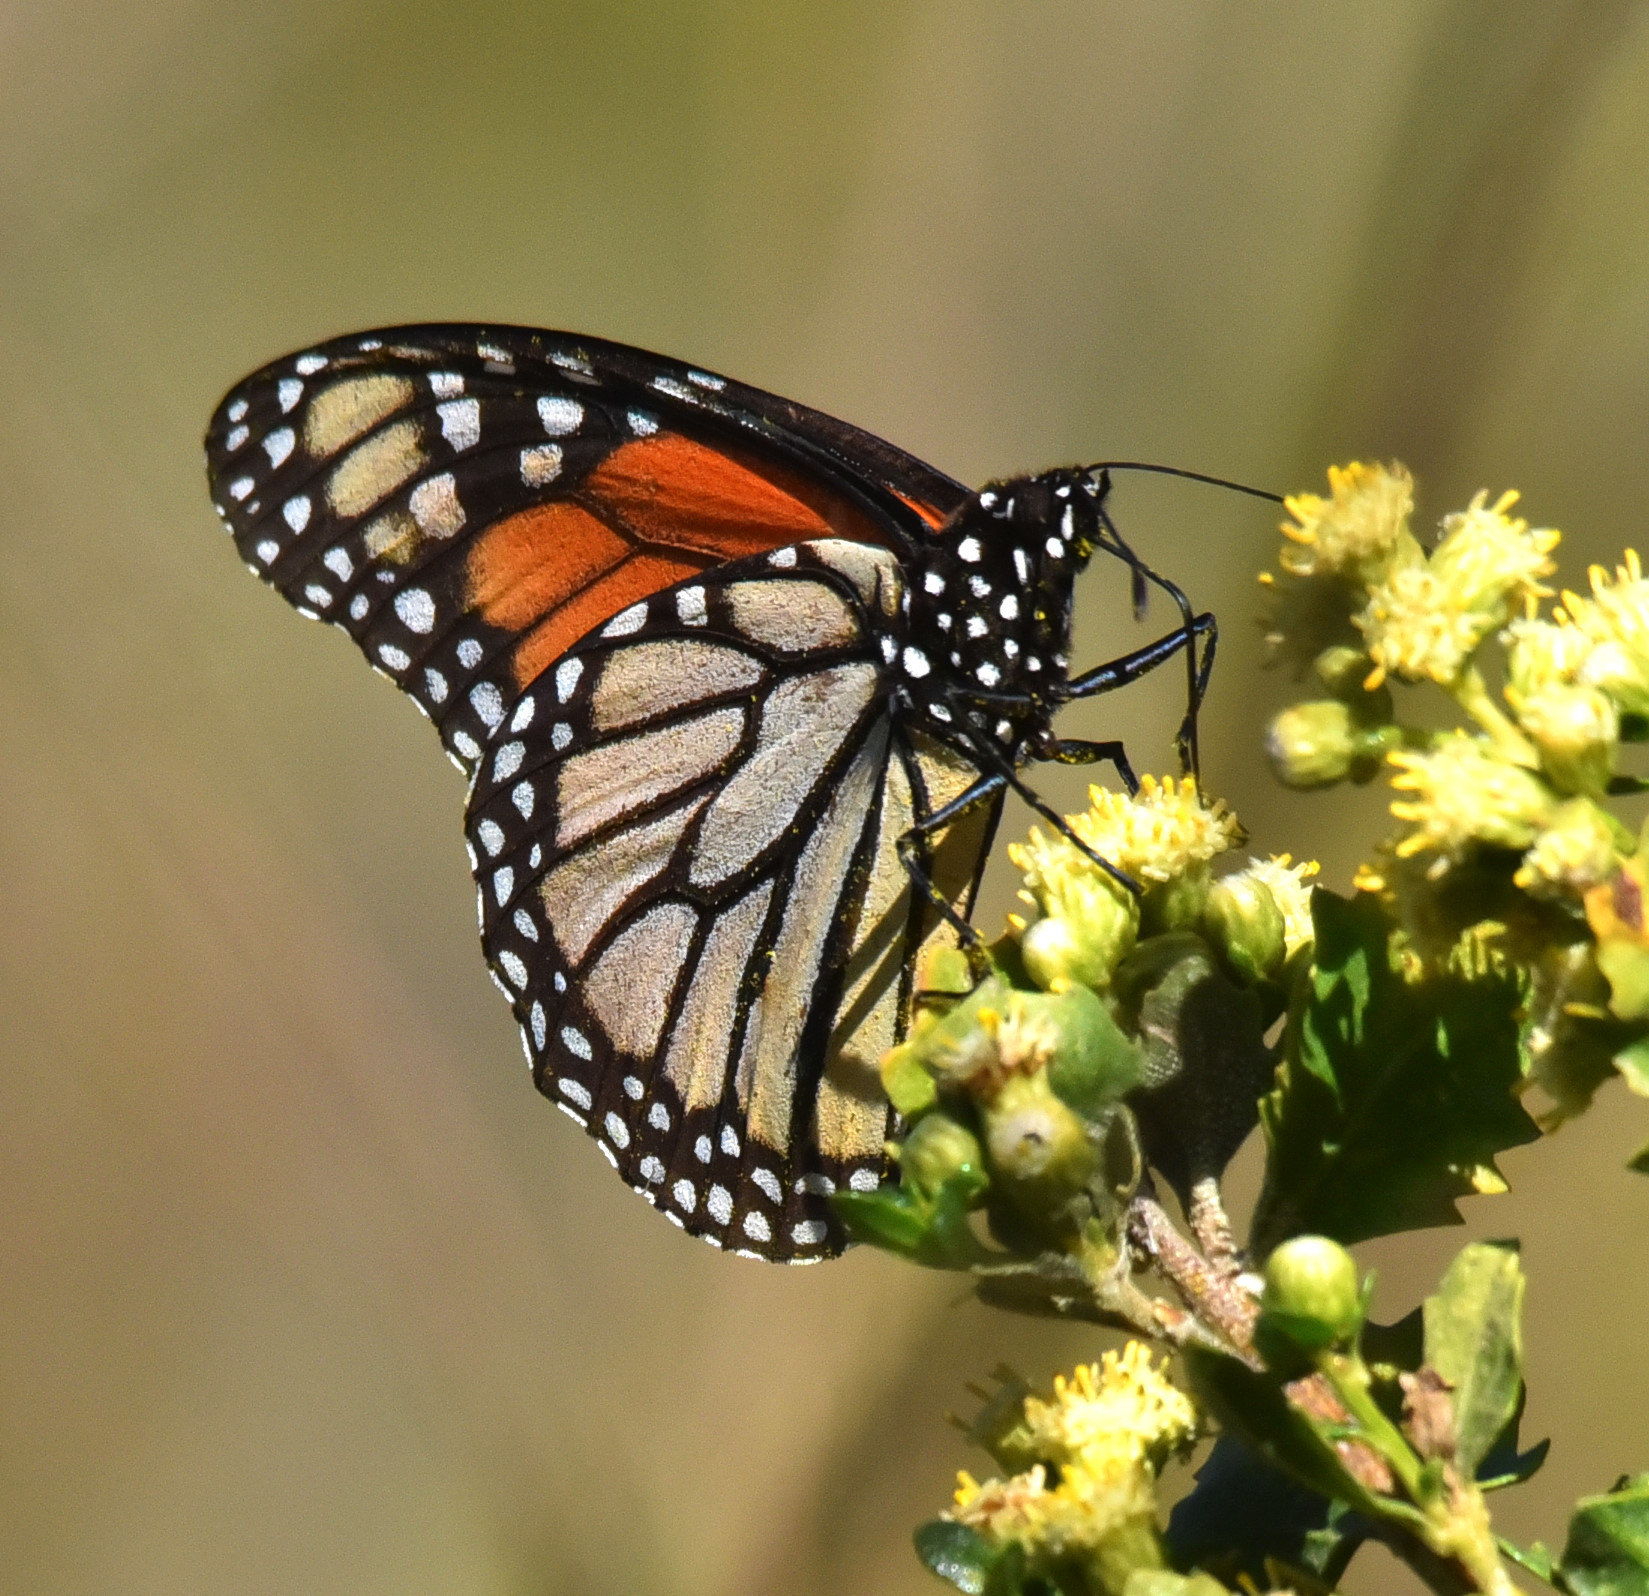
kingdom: Animalia
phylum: Arthropoda
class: Insecta
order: Lepidoptera
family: Nymphalidae
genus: Danaus
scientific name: Danaus plexippus
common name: Monarch
